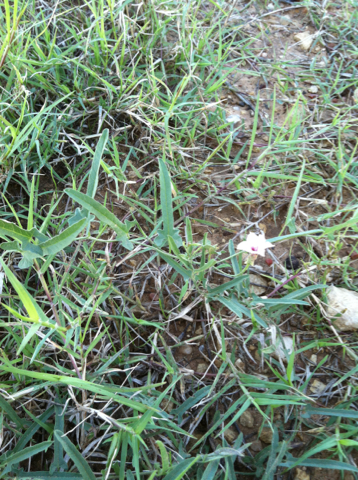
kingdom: Plantae
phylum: Tracheophyta
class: Magnoliopsida
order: Solanales
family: Convolvulaceae
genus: Convolvulus
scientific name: Convolvulus equitans
